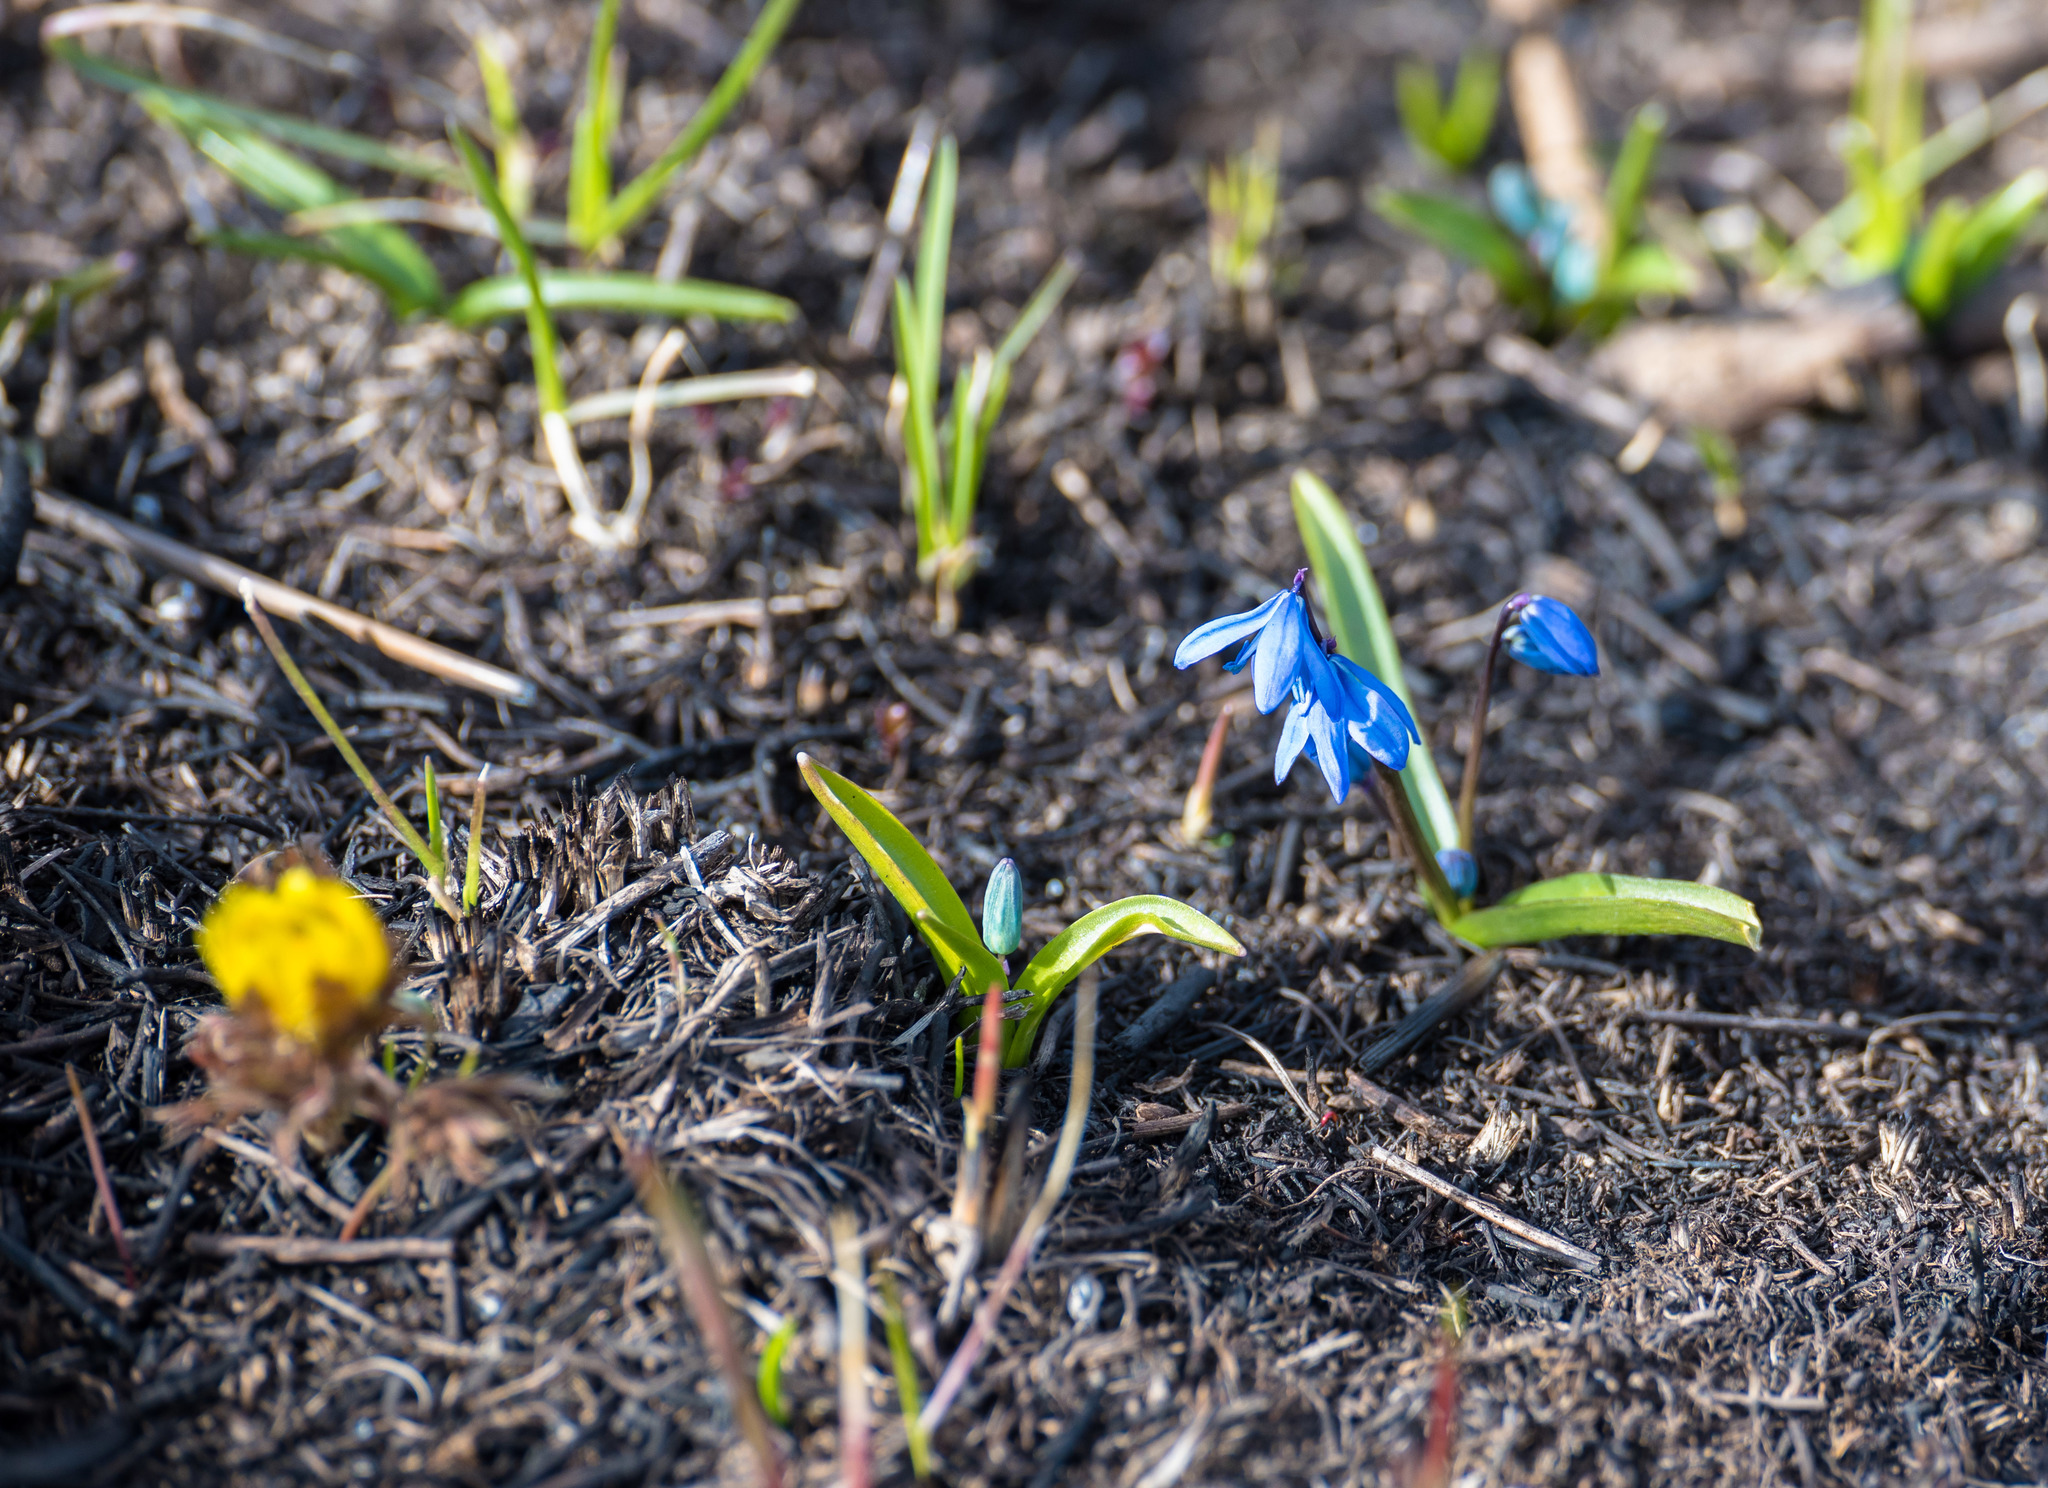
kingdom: Plantae
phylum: Tracheophyta
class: Liliopsida
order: Asparagales
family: Asparagaceae
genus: Scilla
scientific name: Scilla siberica
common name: Siberian squill
